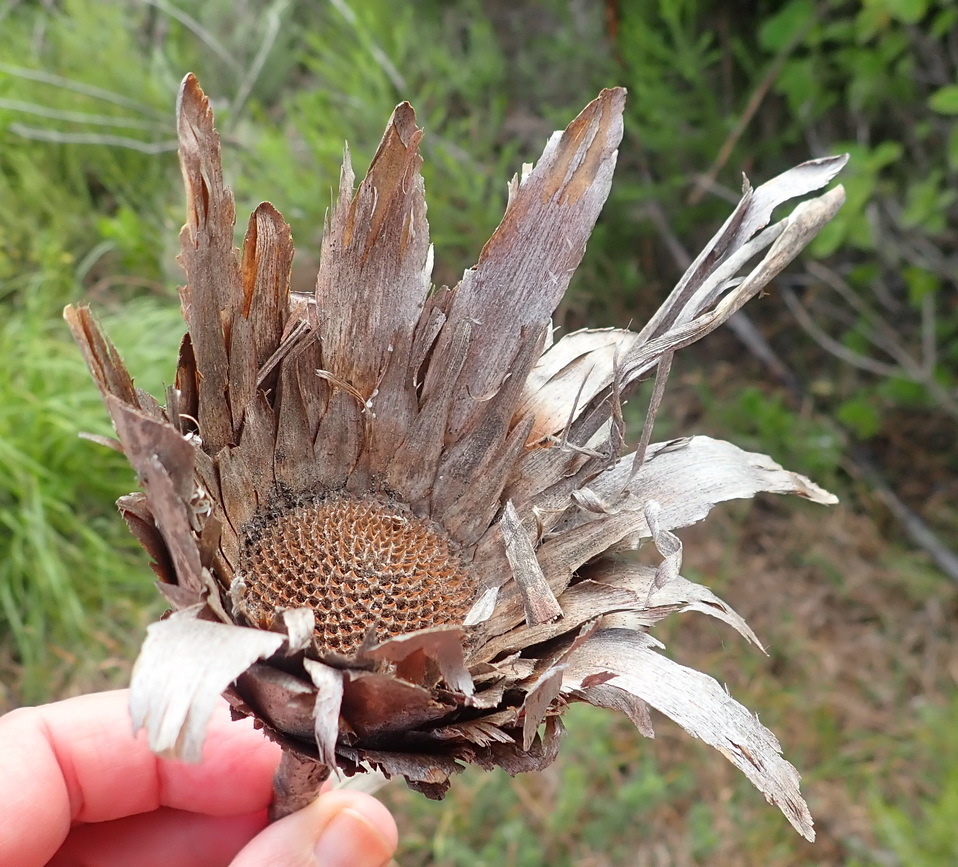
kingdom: Plantae
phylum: Tracheophyta
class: Magnoliopsida
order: Proteales
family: Proteaceae
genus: Protea
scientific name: Protea neriifolia
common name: Blue sugarbush
